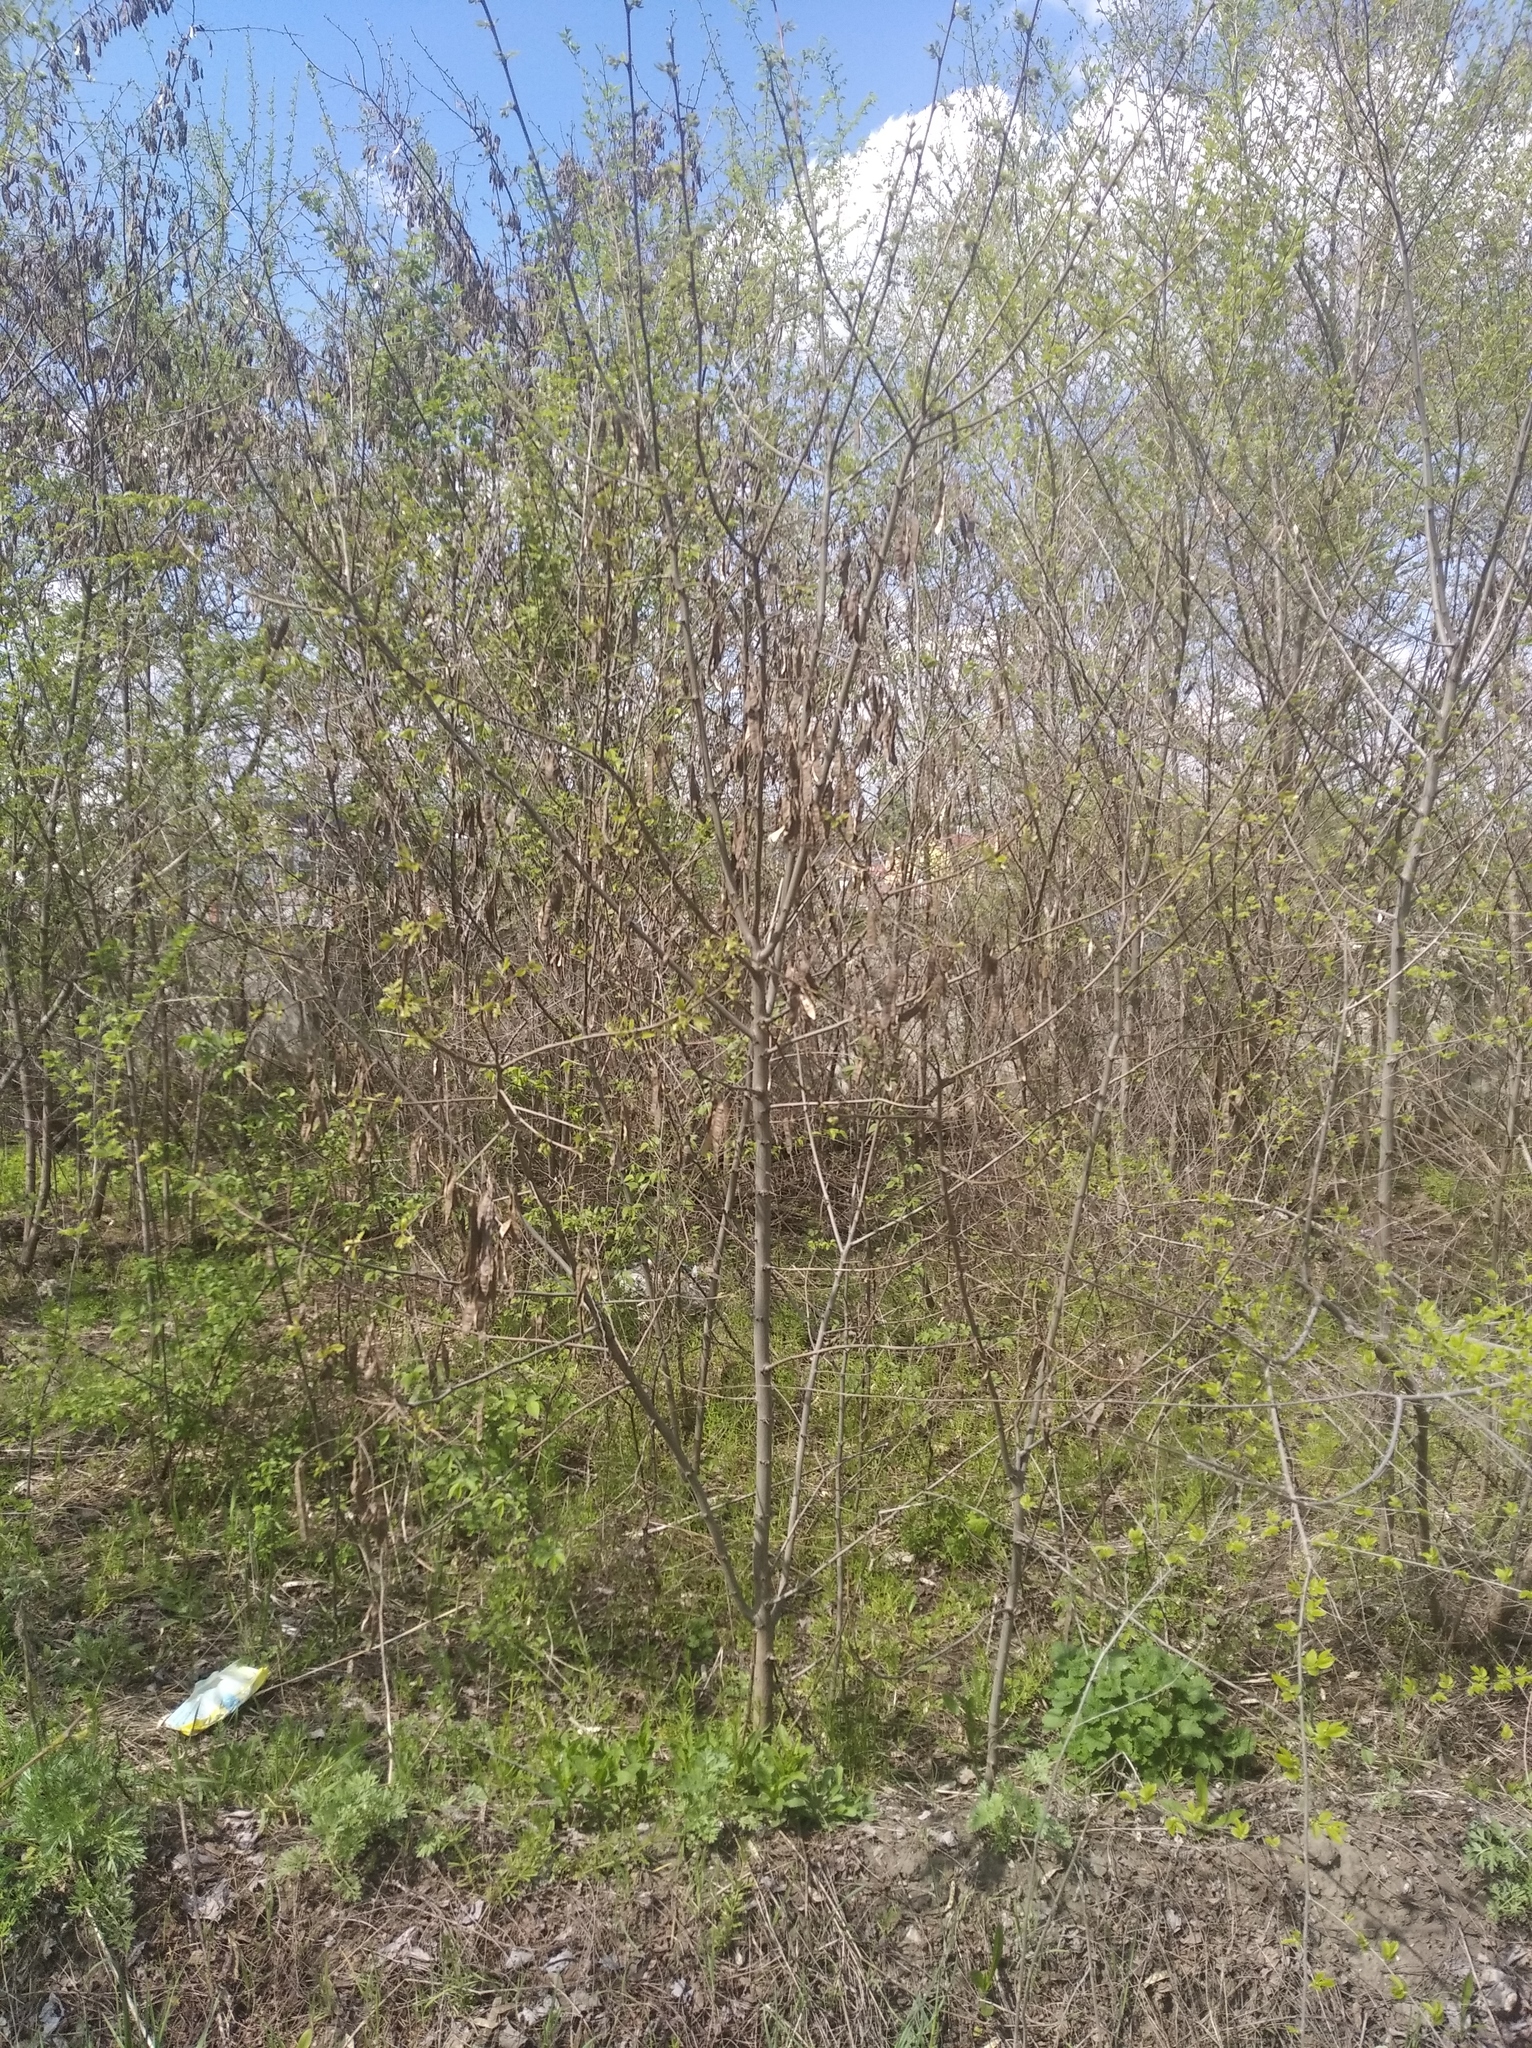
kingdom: Plantae
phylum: Tracheophyta
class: Magnoliopsida
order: Fabales
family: Fabaceae
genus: Robinia
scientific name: Robinia pseudoacacia
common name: Black locust
